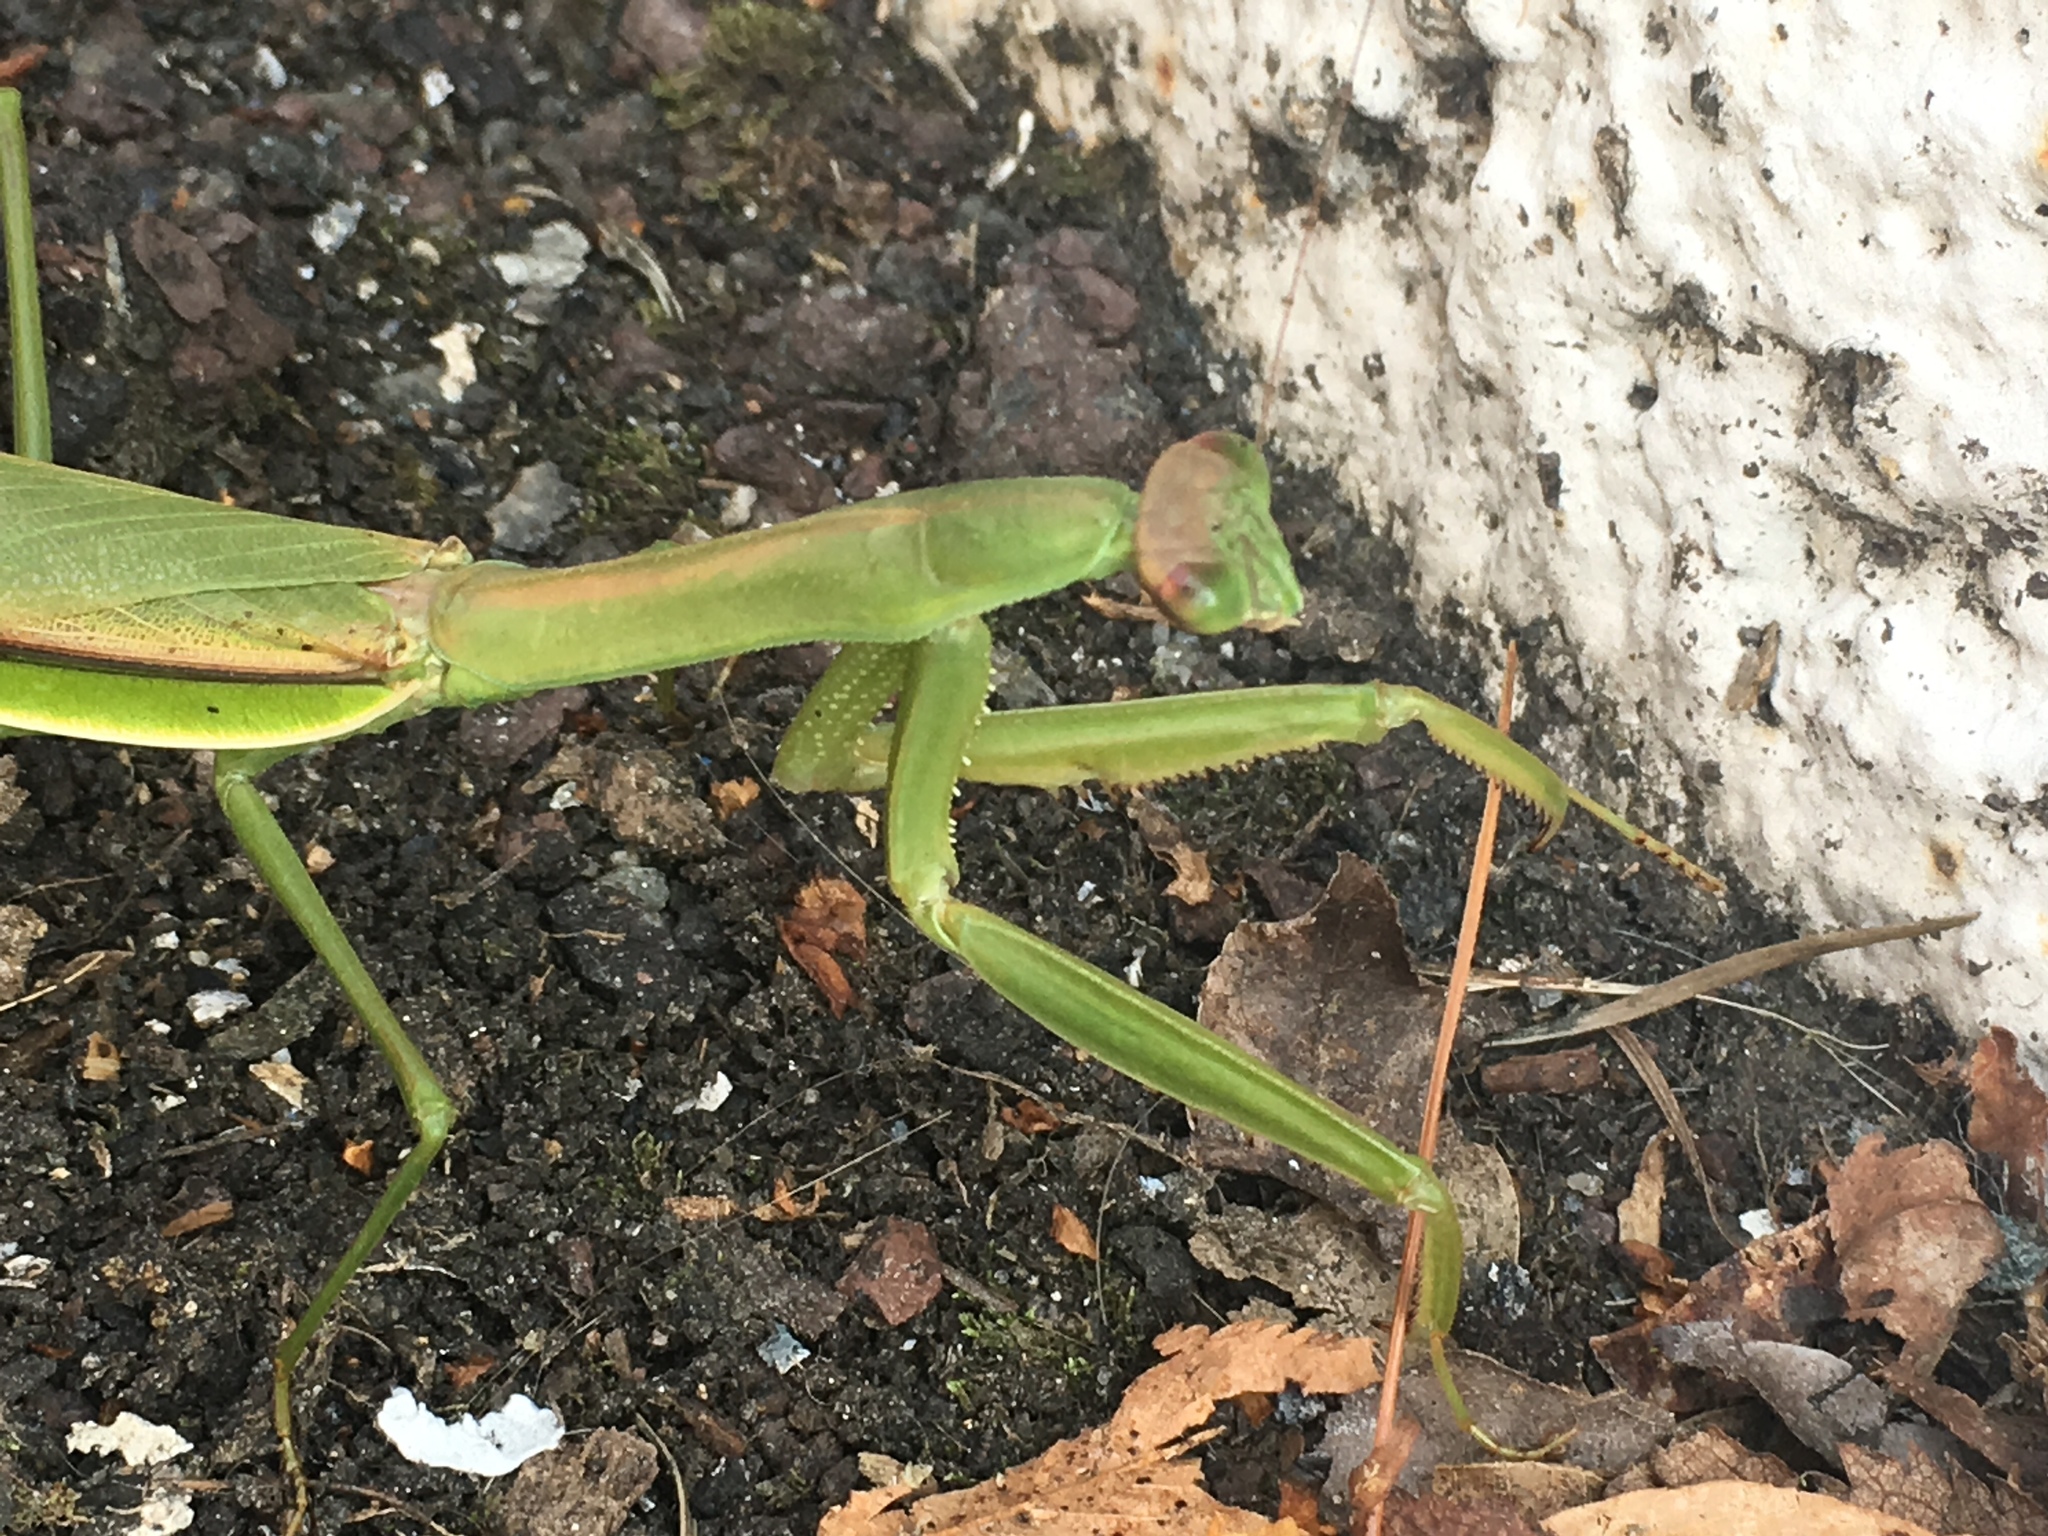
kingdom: Animalia
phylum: Arthropoda
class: Insecta
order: Mantodea
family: Mantidae
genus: Tenodera
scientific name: Tenodera sinensis
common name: Chinese mantis
